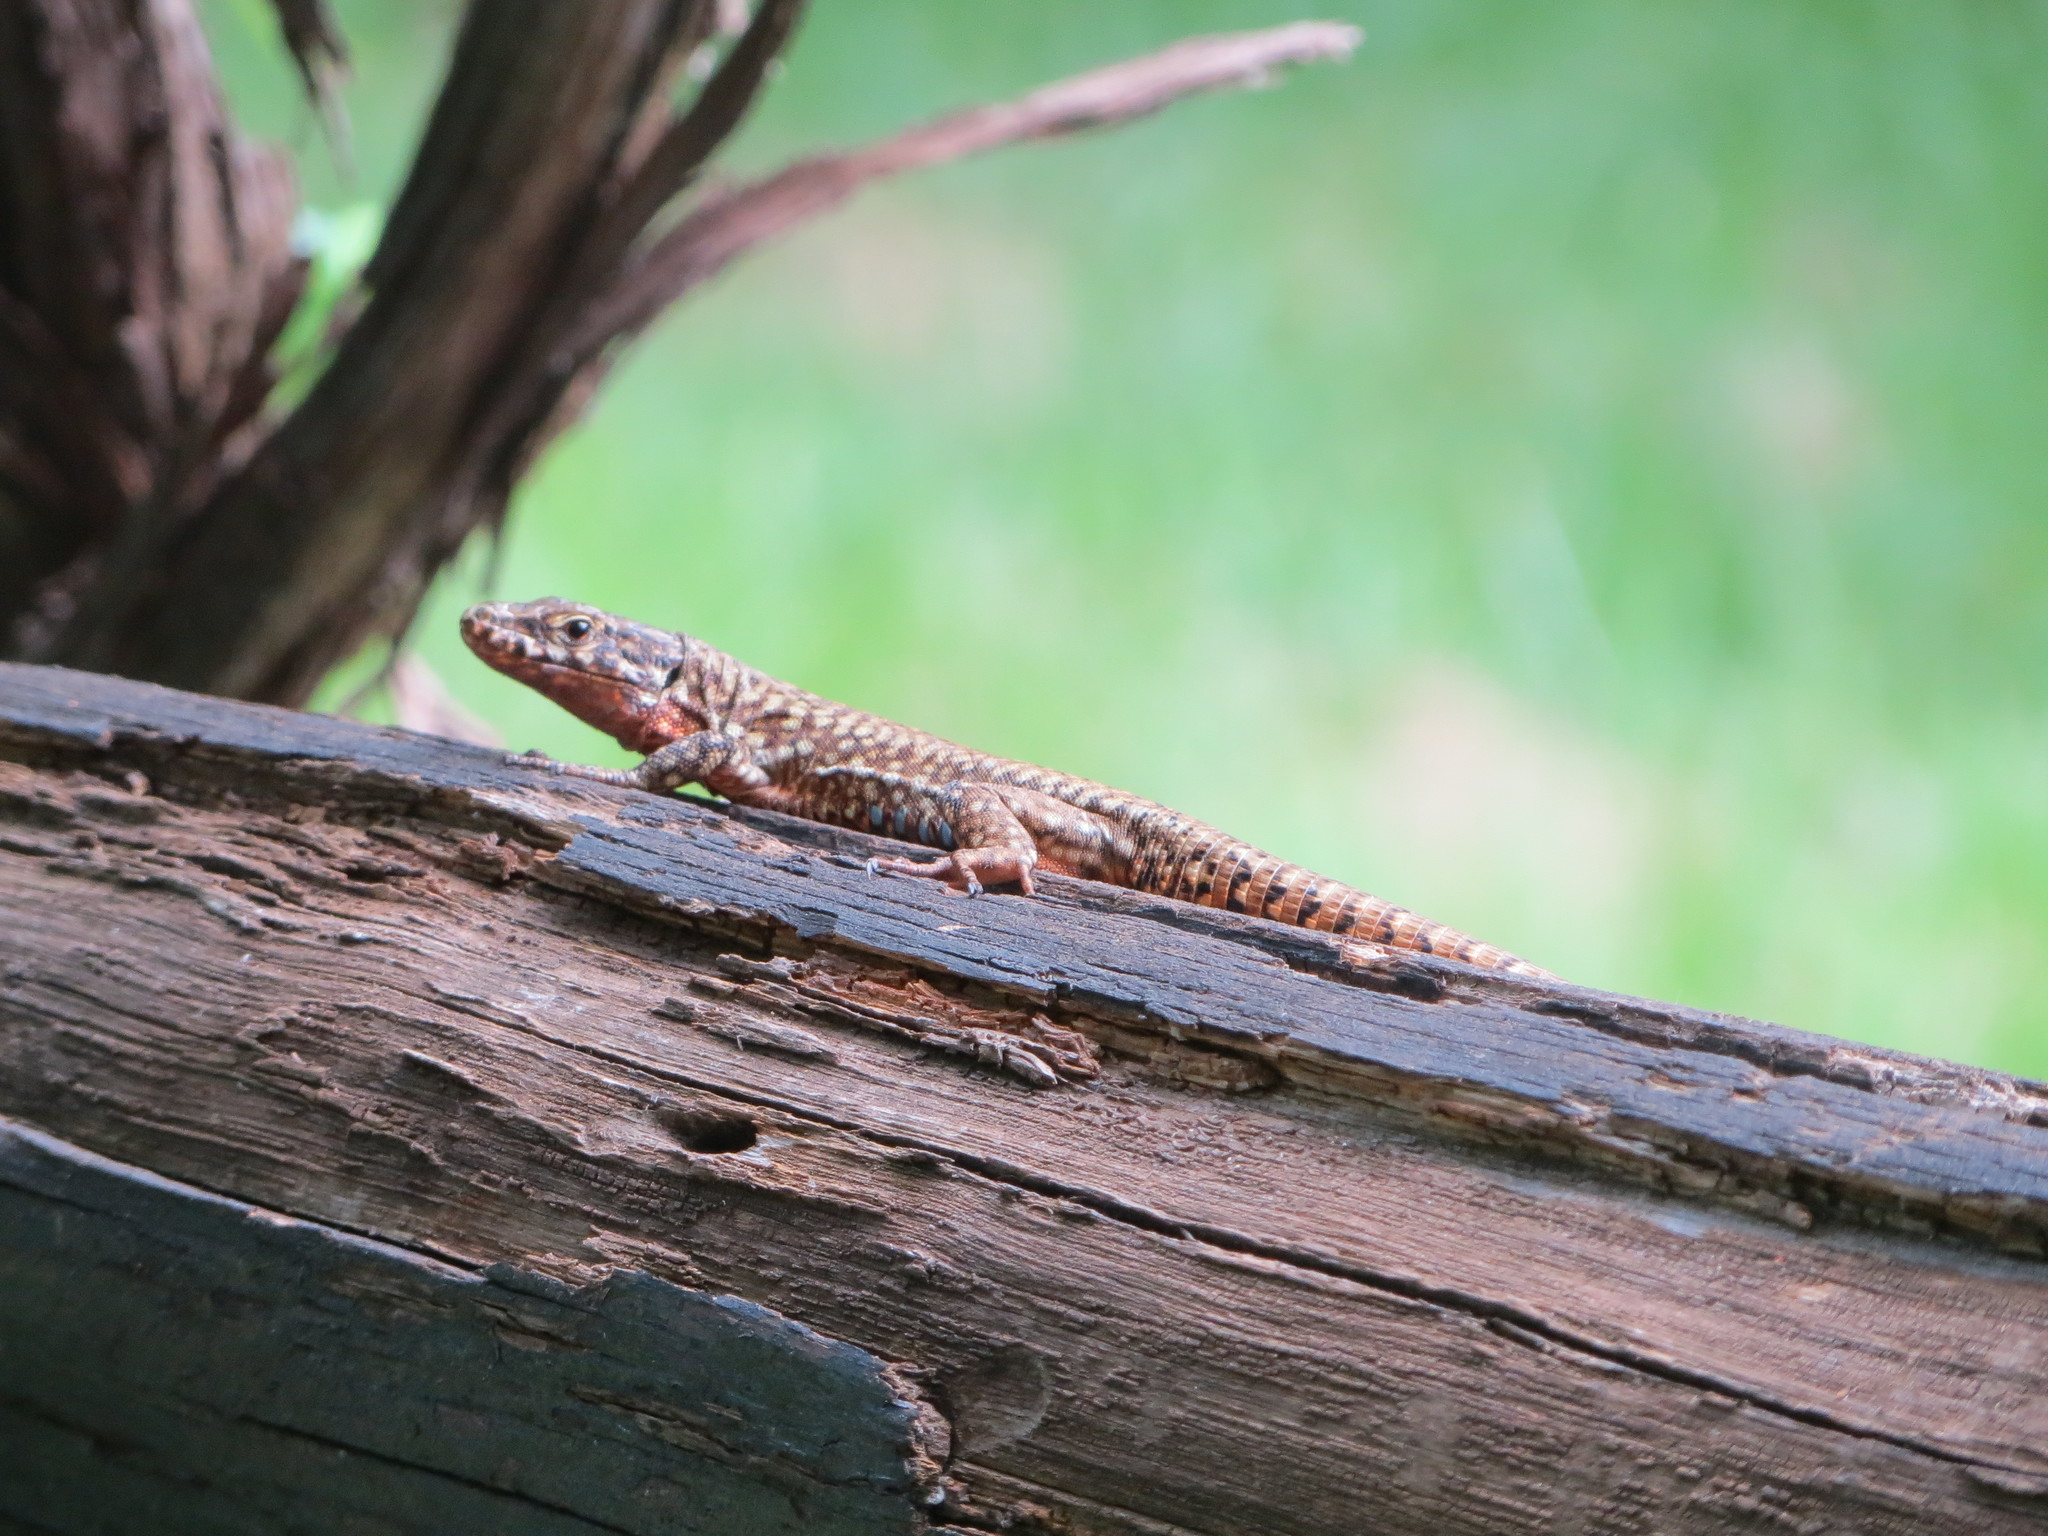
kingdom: Animalia
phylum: Chordata
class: Squamata
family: Lacertidae
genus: Podarcis
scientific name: Podarcis muralis
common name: Common wall lizard
